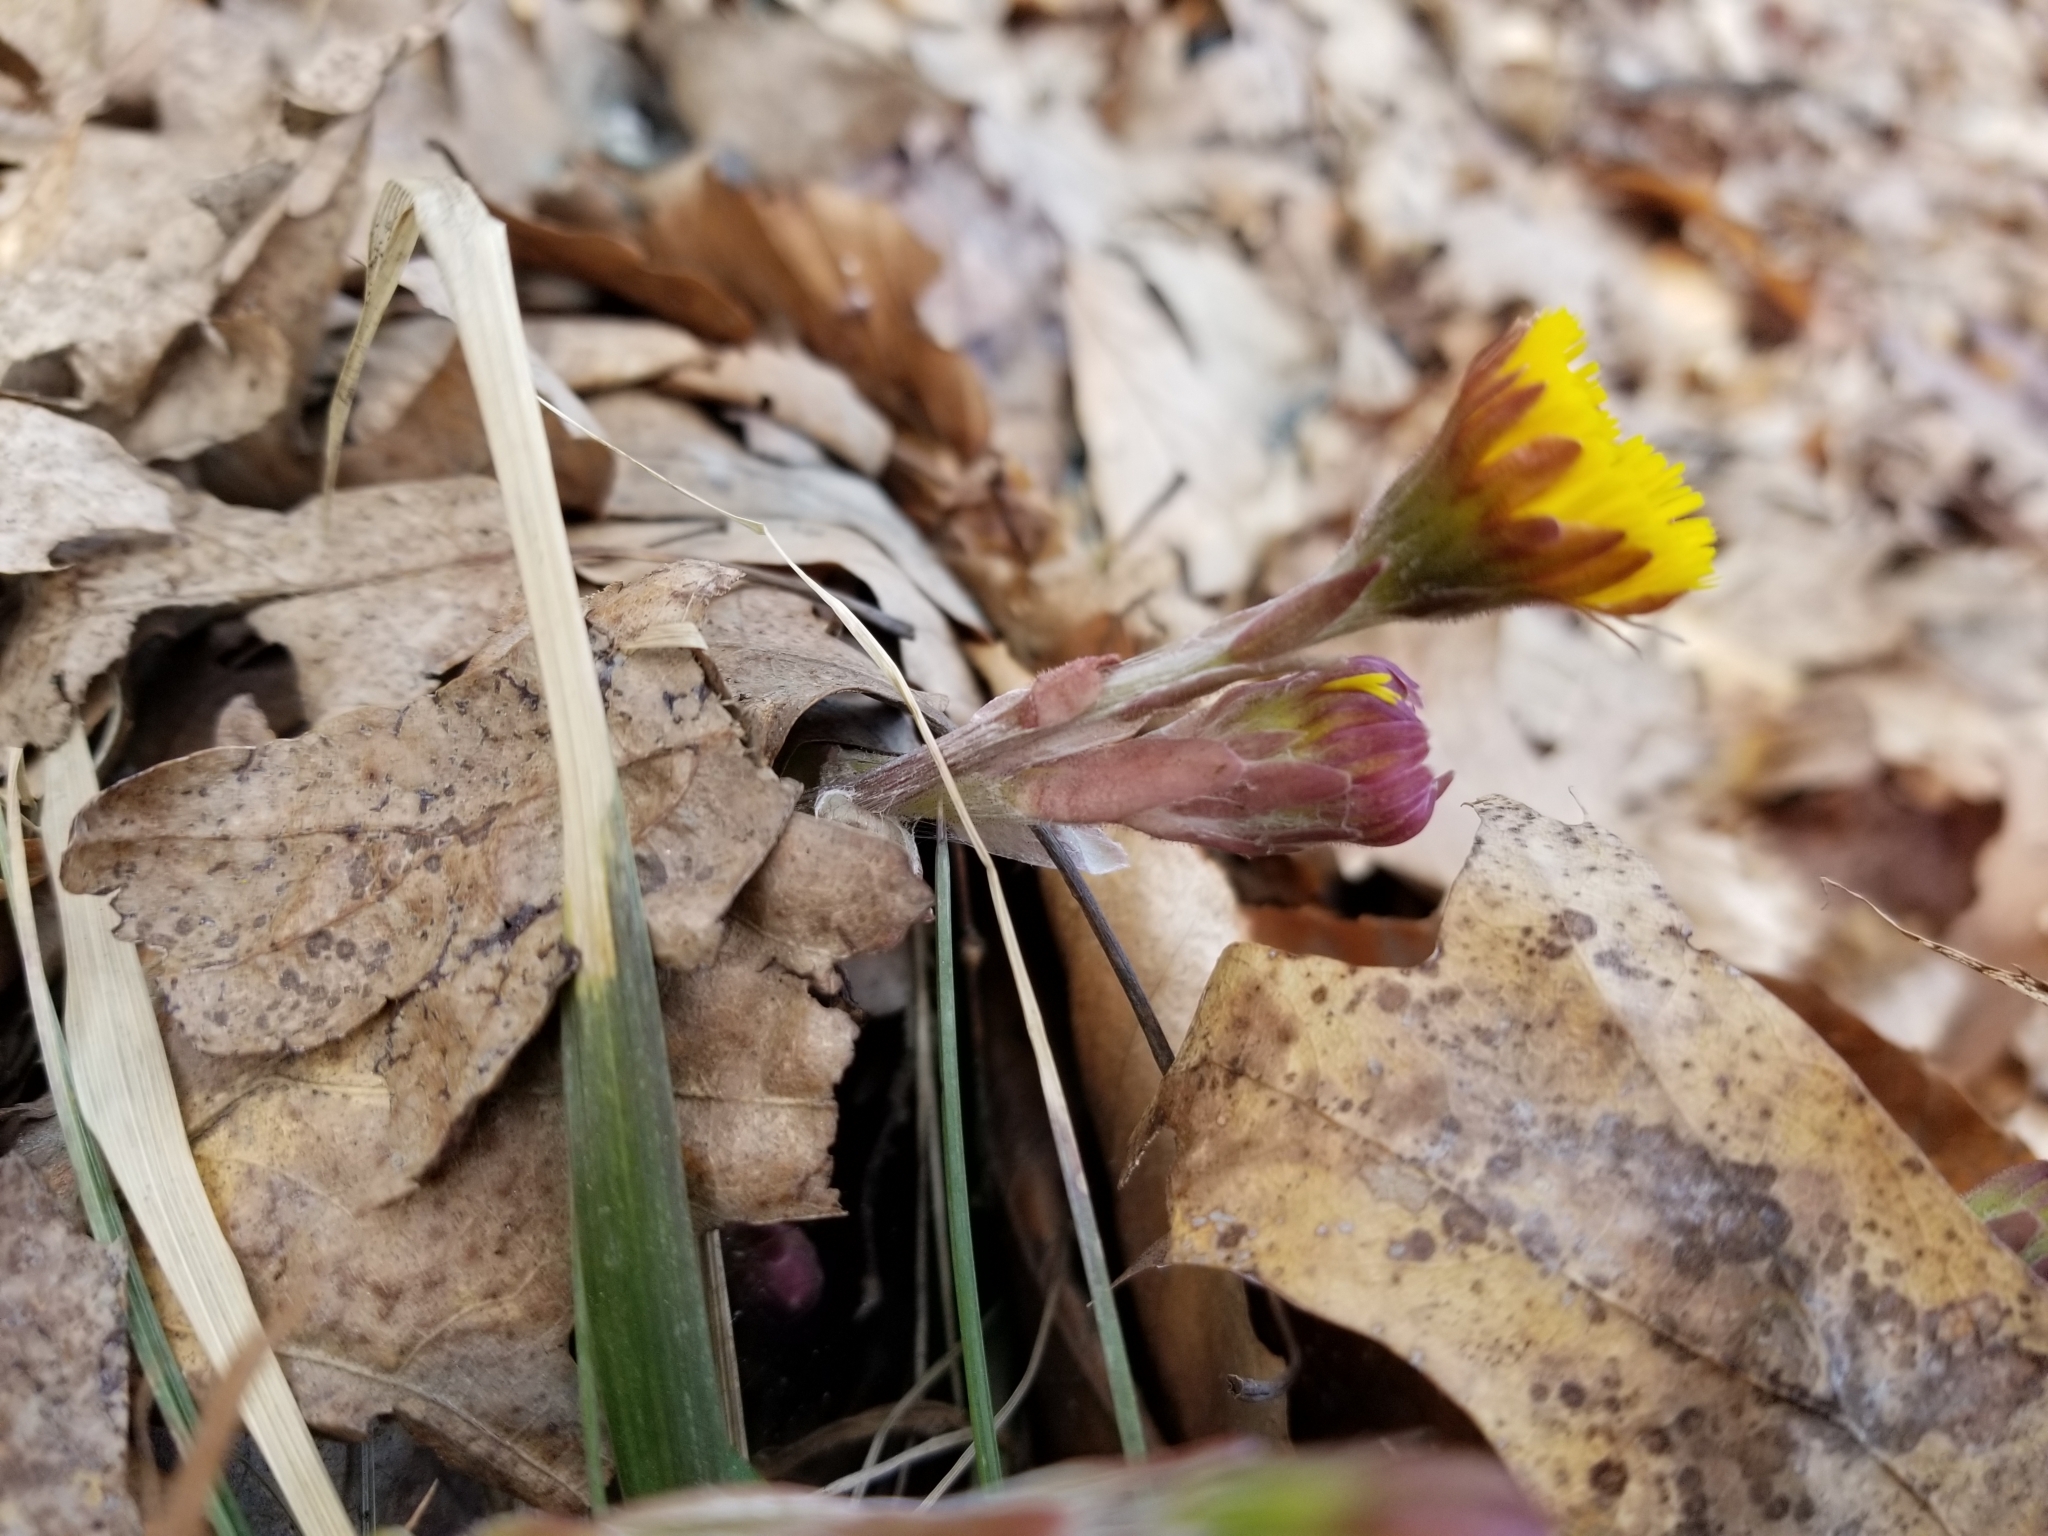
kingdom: Plantae
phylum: Tracheophyta
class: Magnoliopsida
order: Asterales
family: Asteraceae
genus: Tussilago
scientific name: Tussilago farfara
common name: Coltsfoot
